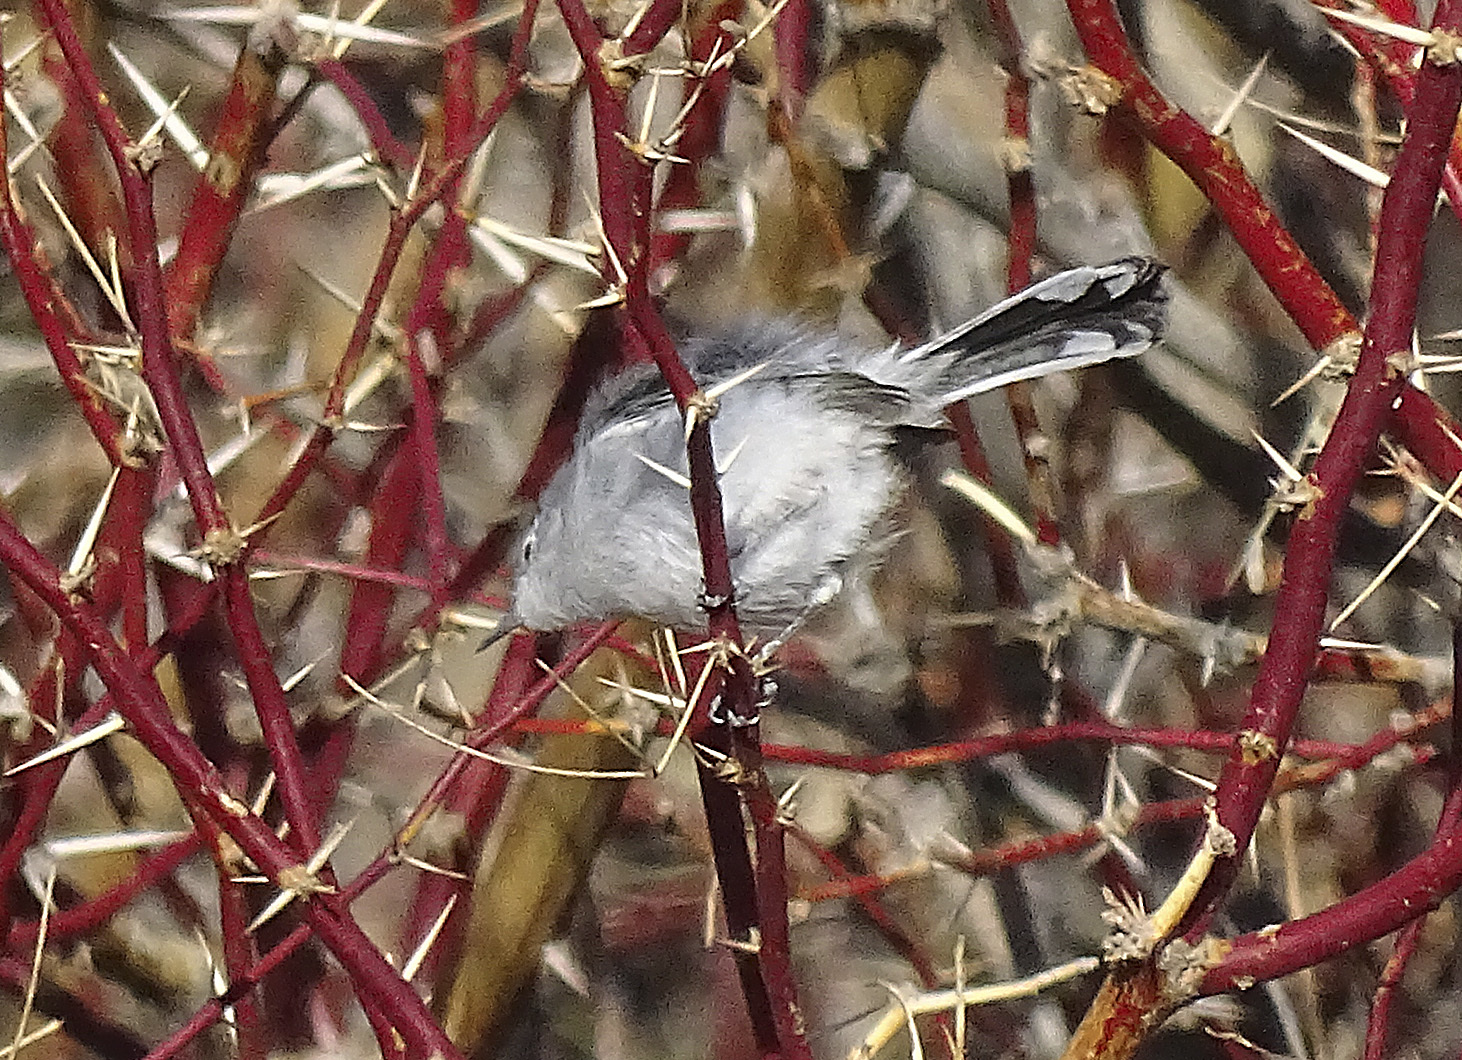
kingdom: Animalia
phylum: Chordata
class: Aves
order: Passeriformes
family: Polioptilidae
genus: Polioptila
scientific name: Polioptila melanura
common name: Black-tailed gnatcatcher
